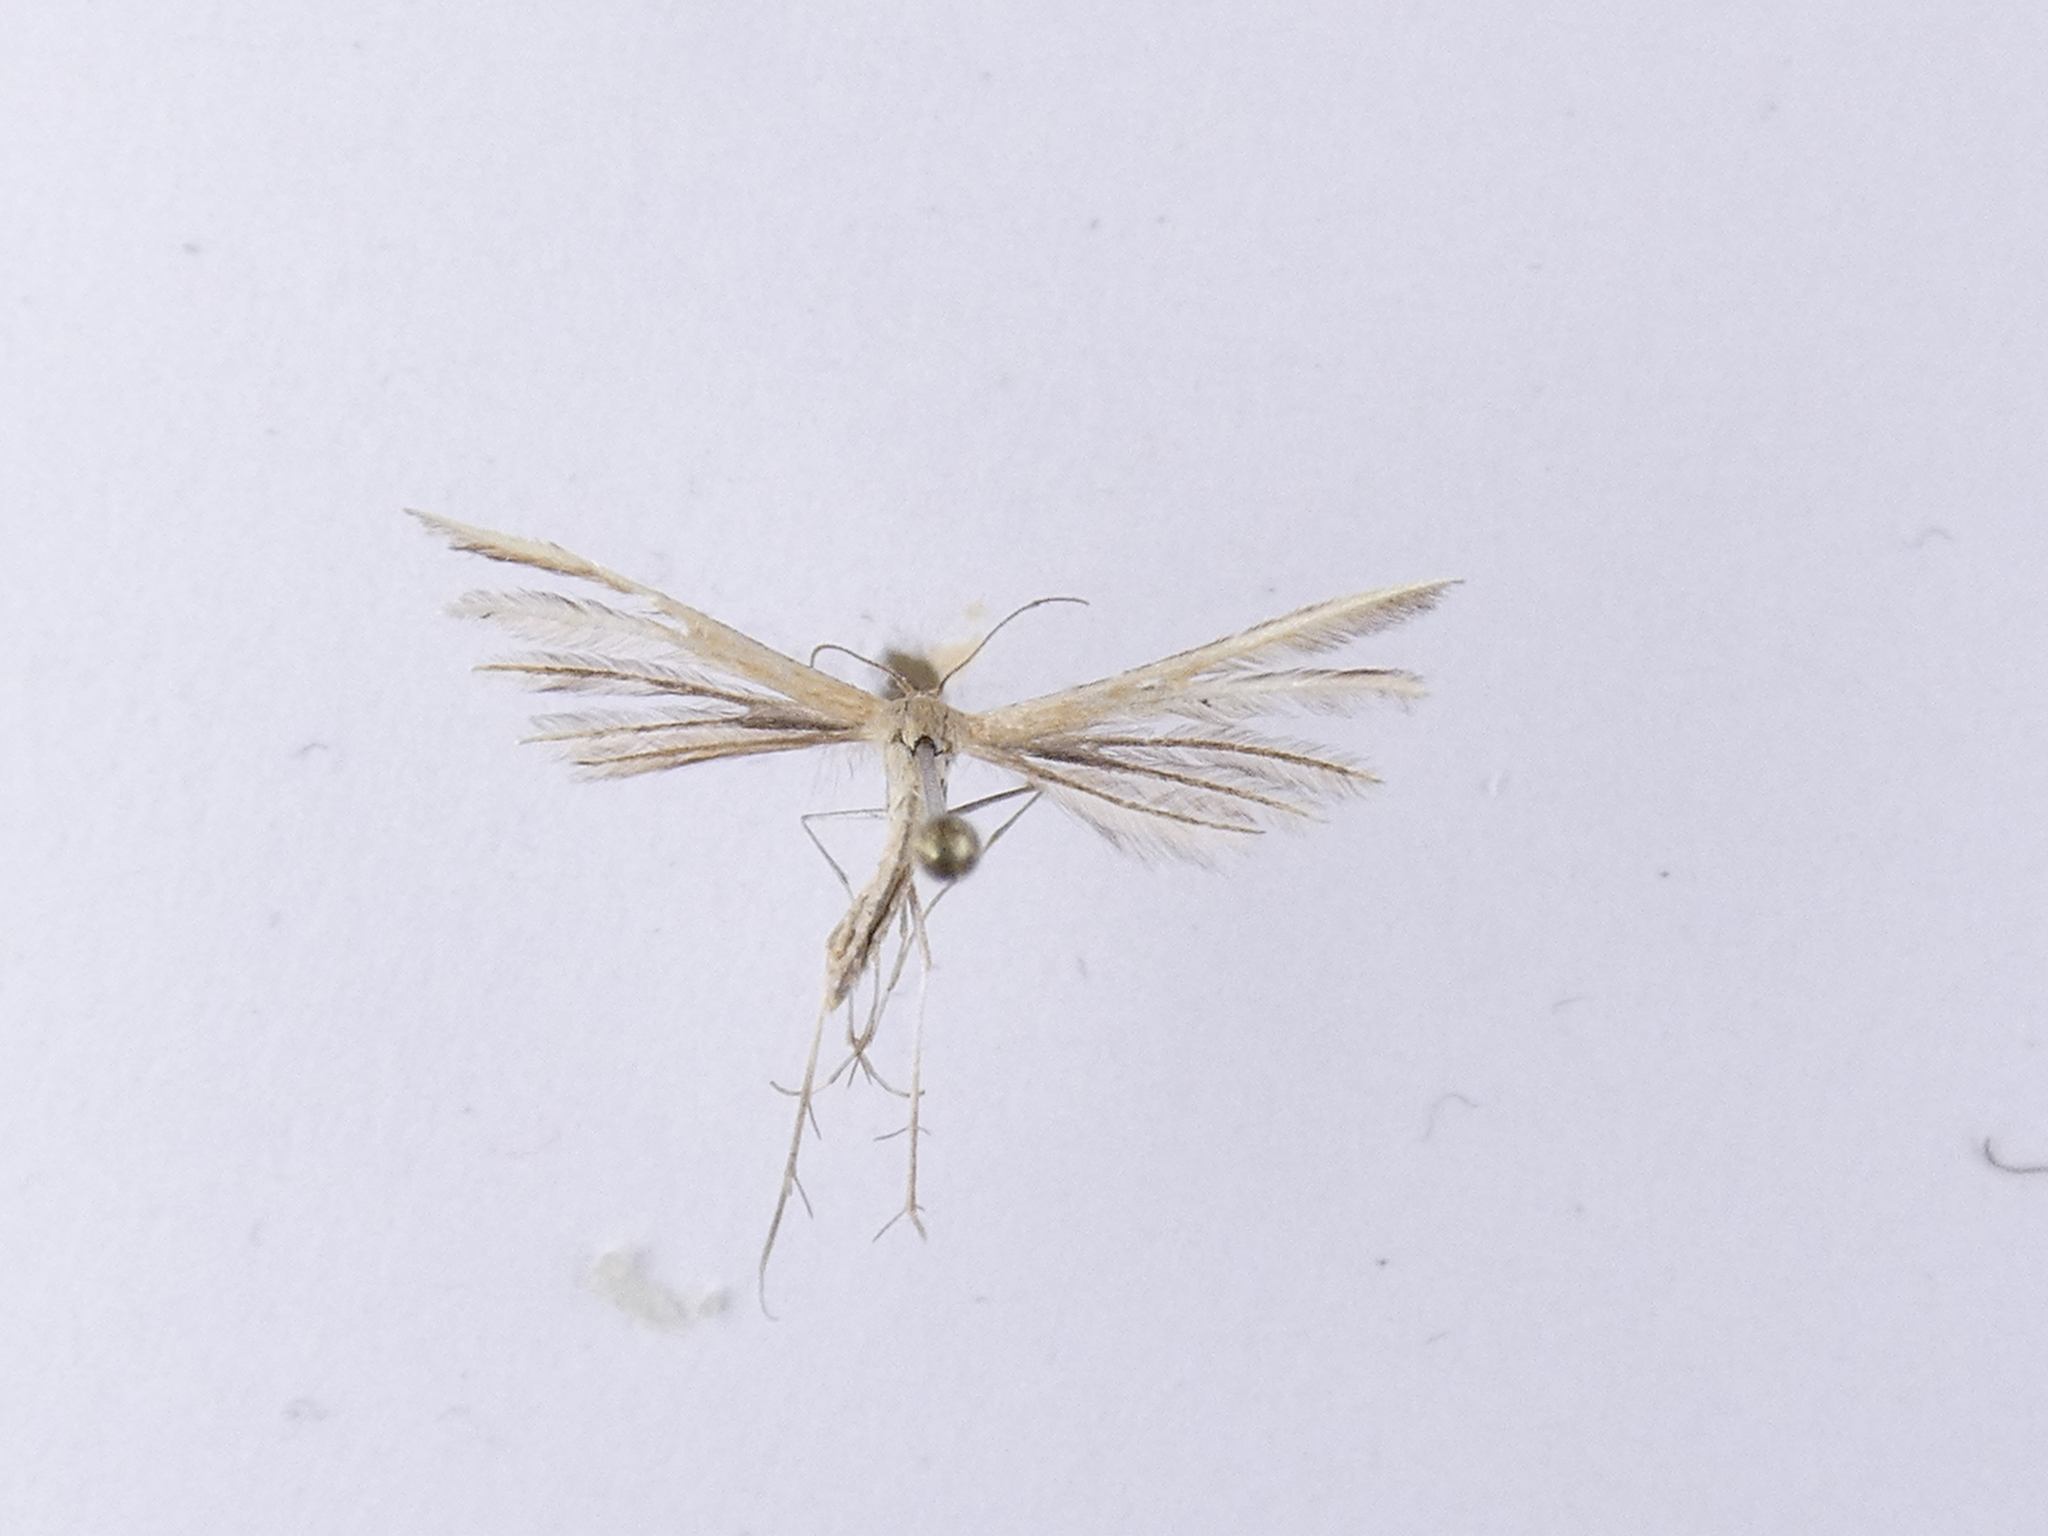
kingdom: Animalia
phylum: Arthropoda
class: Insecta
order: Lepidoptera
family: Pterophoridae
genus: Pterophorus
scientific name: Pterophorus innotatalis
